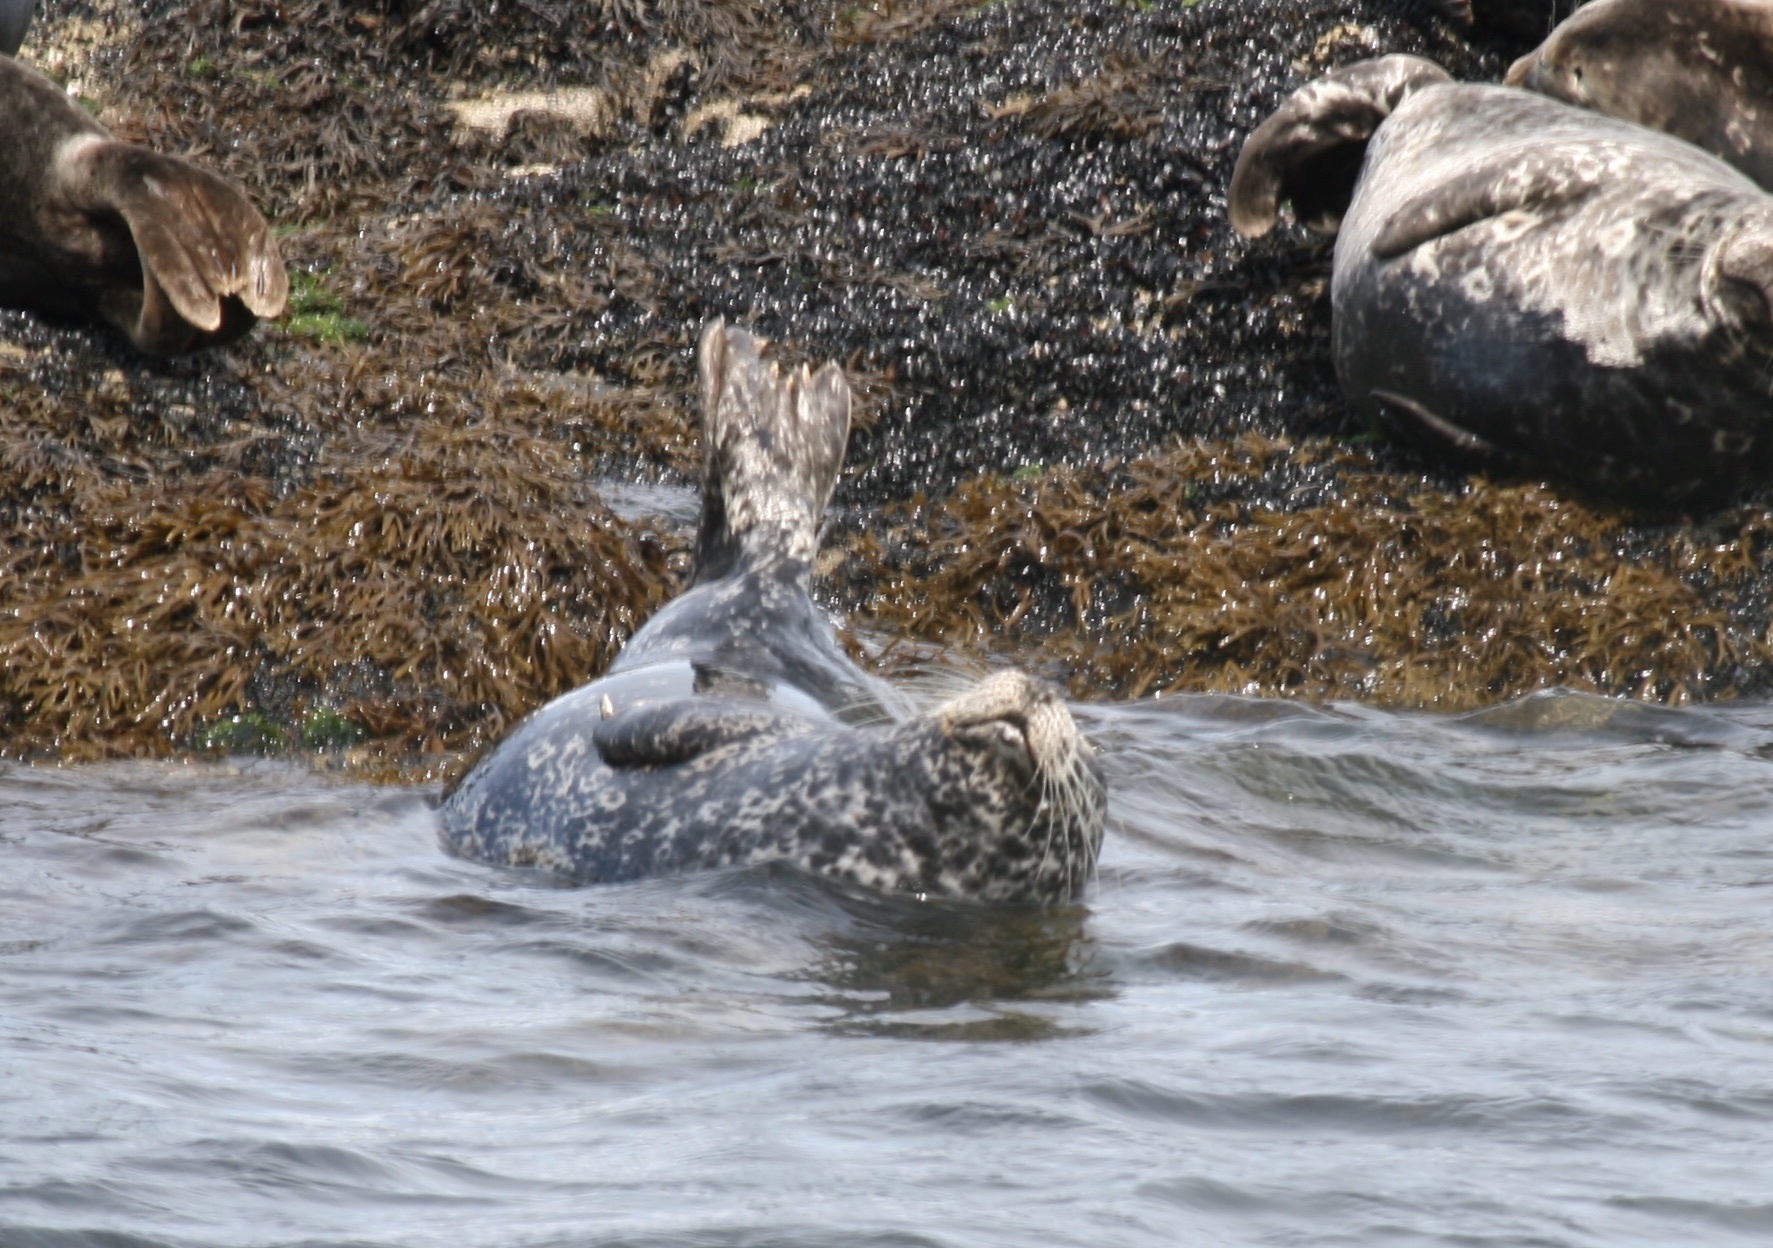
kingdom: Animalia
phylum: Chordata
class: Mammalia
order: Carnivora
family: Phocidae
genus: Phoca
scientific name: Phoca vitulina
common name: Harbor seal
